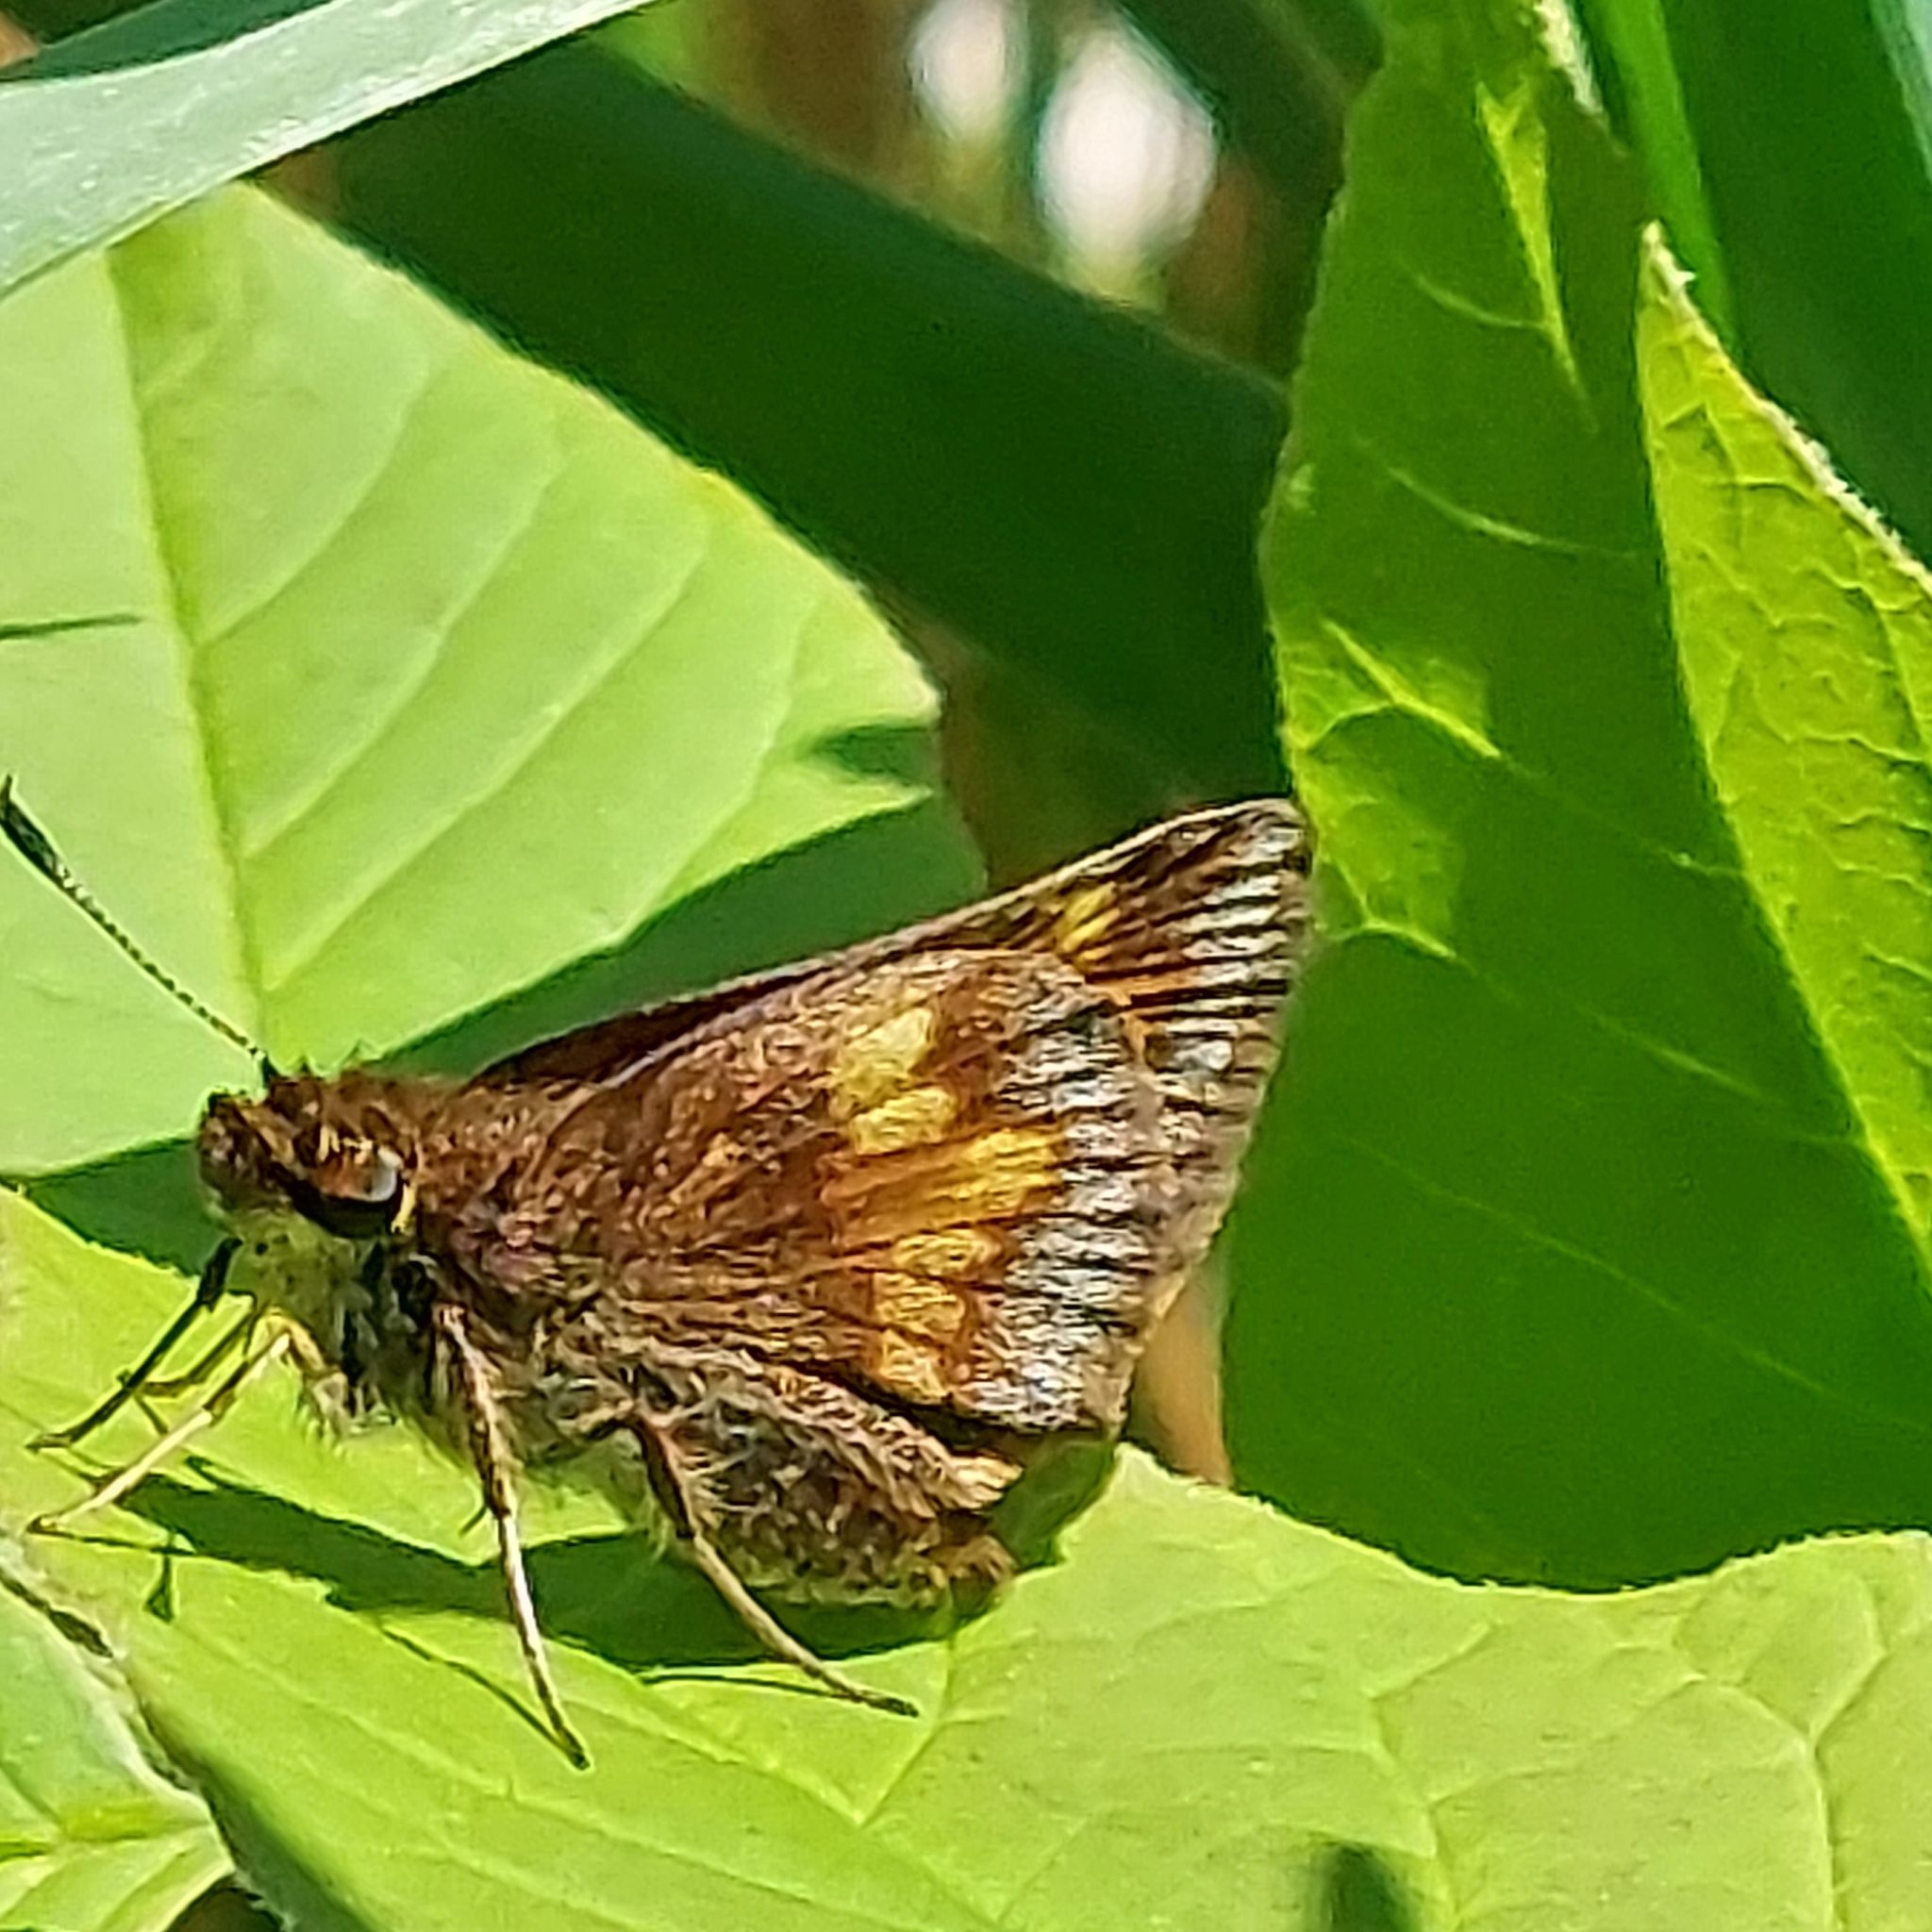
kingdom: Animalia
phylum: Arthropoda
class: Insecta
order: Lepidoptera
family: Hesperiidae
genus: Lon
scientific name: Lon hobomok
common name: Hobomok skipper
